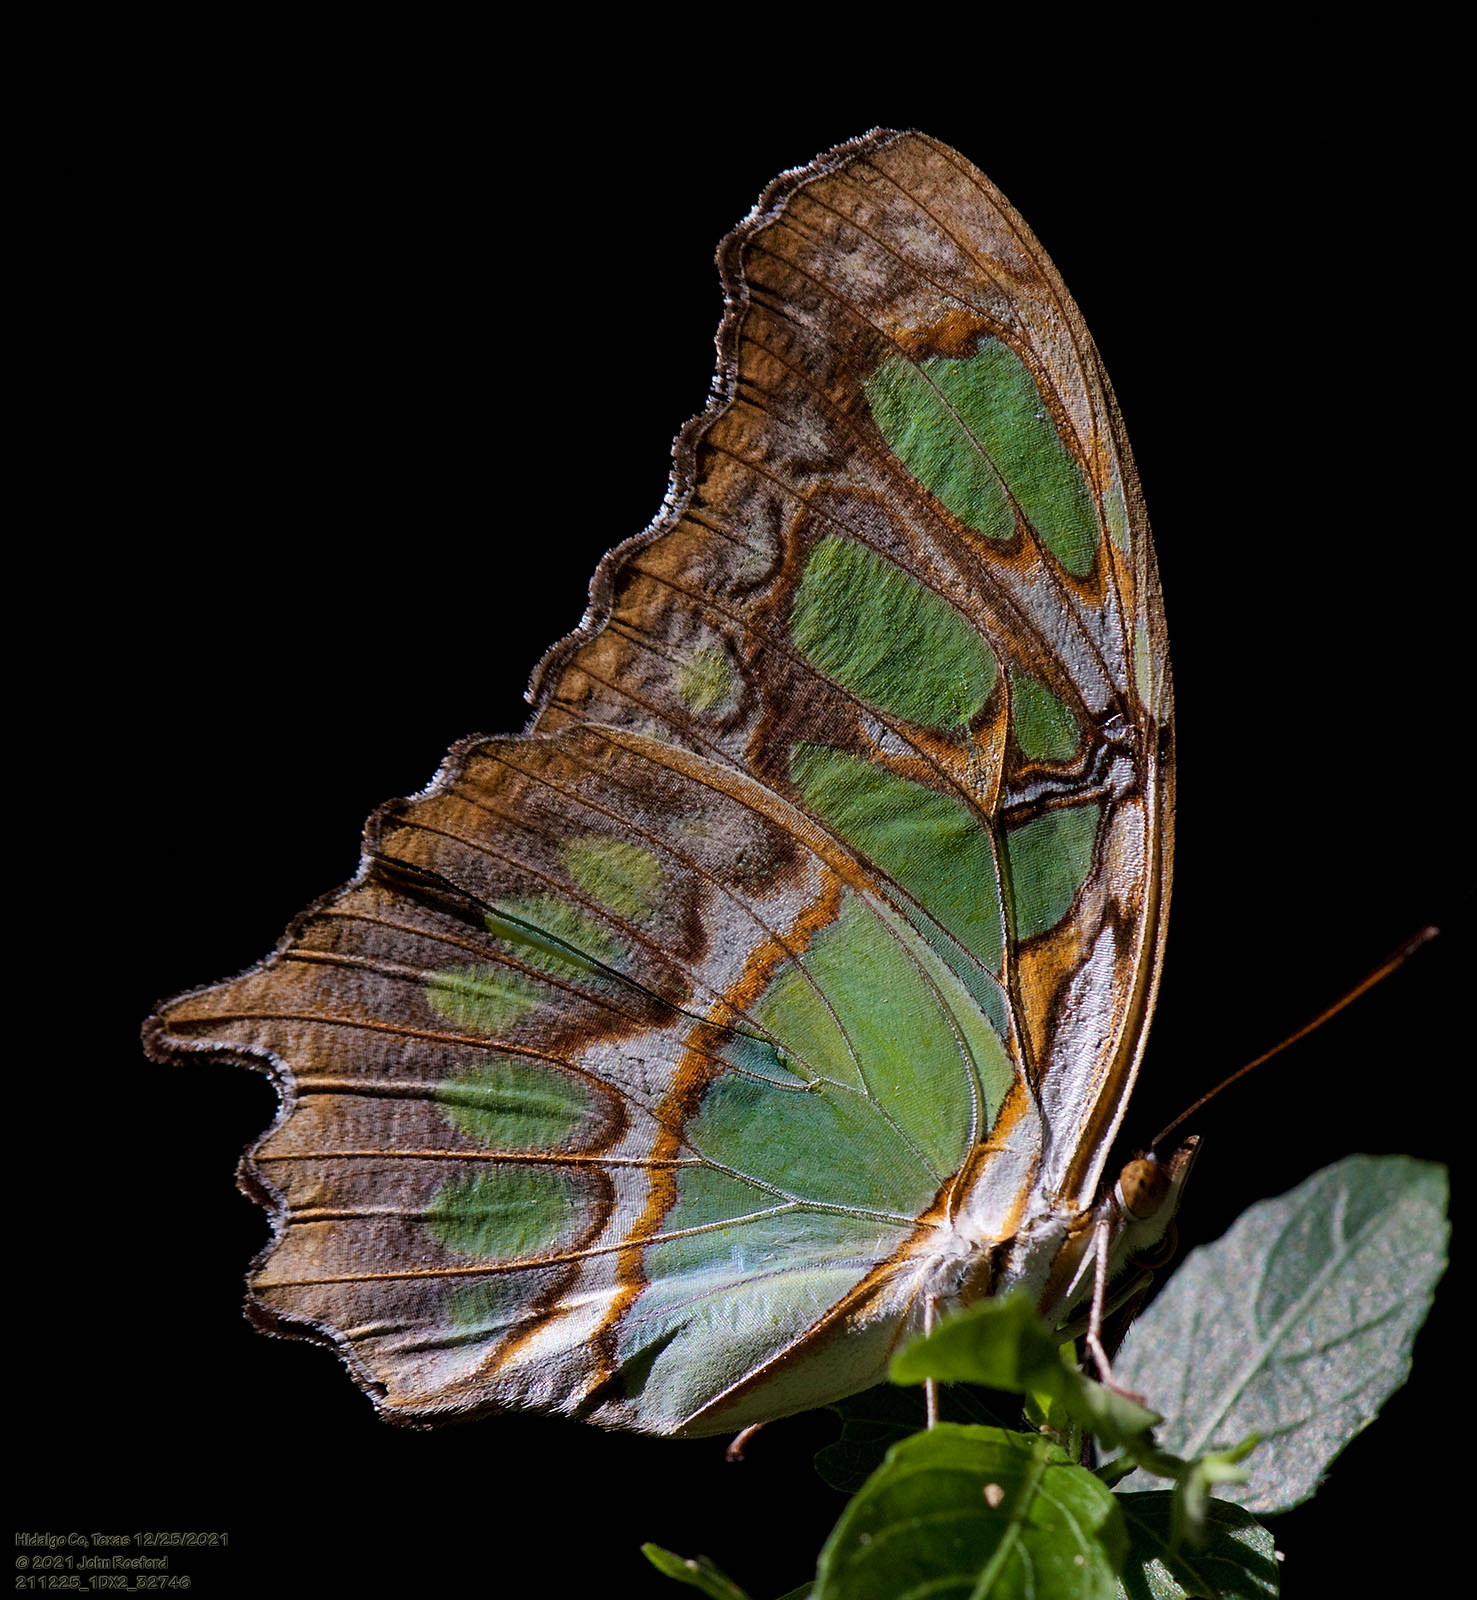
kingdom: Animalia
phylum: Arthropoda
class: Insecta
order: Lepidoptera
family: Nymphalidae
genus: Siproeta
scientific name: Siproeta stelenes
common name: Malachite
